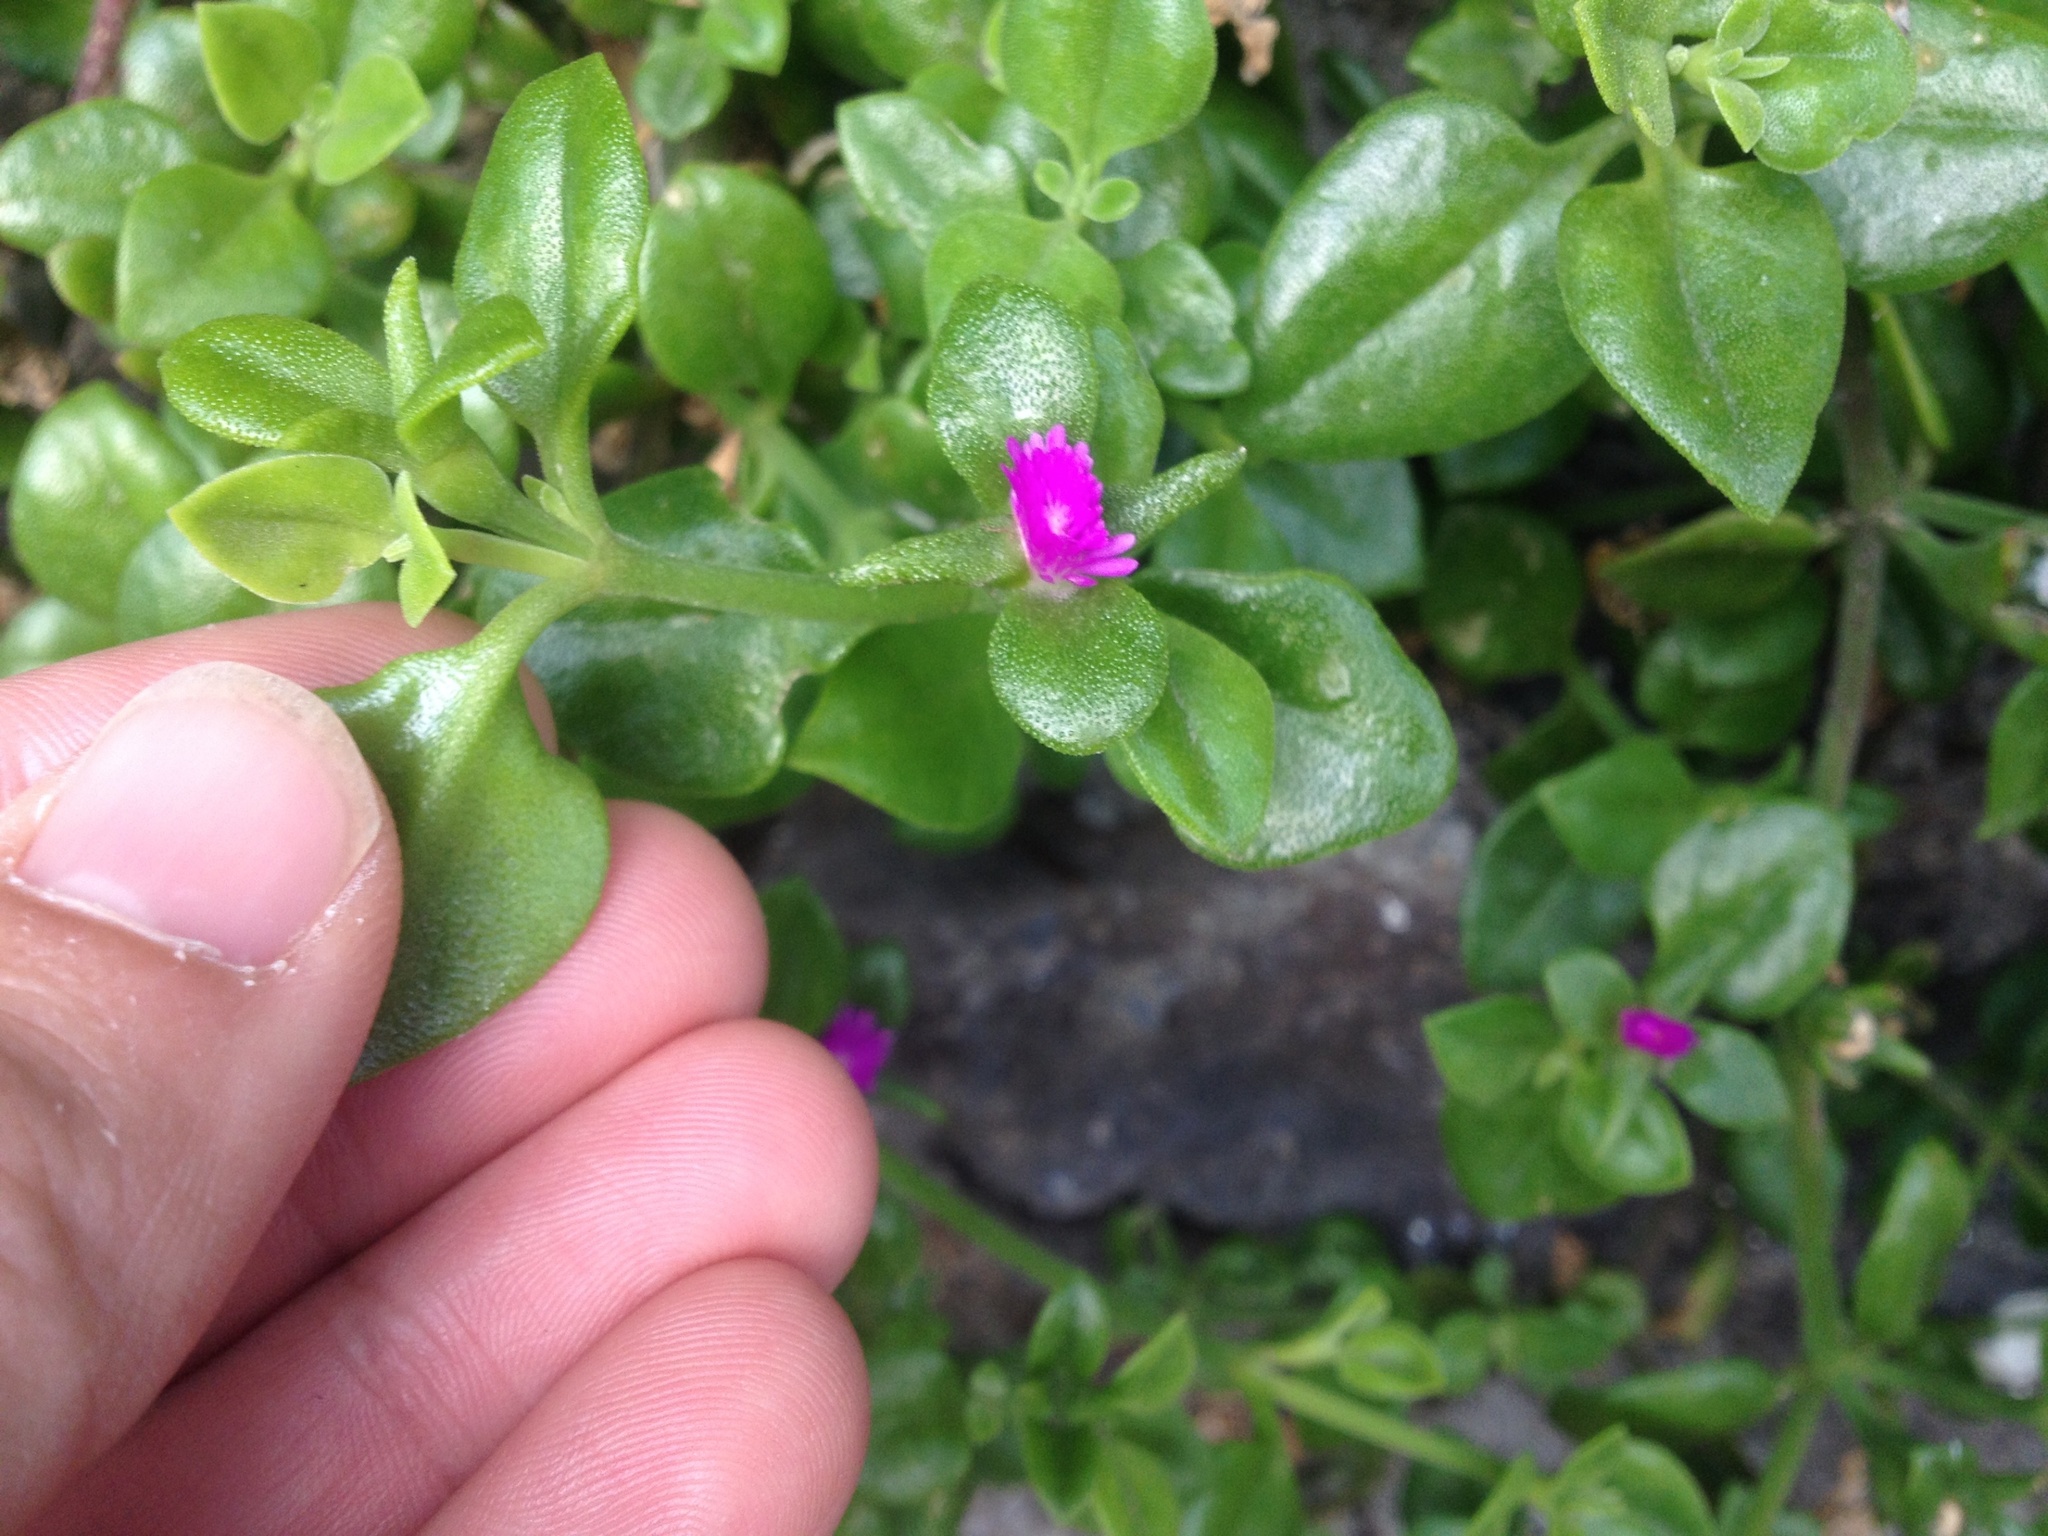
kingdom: Plantae
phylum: Tracheophyta
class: Magnoliopsida
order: Caryophyllales
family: Aizoaceae
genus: Mesembryanthemum
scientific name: Mesembryanthemum cordifolium
